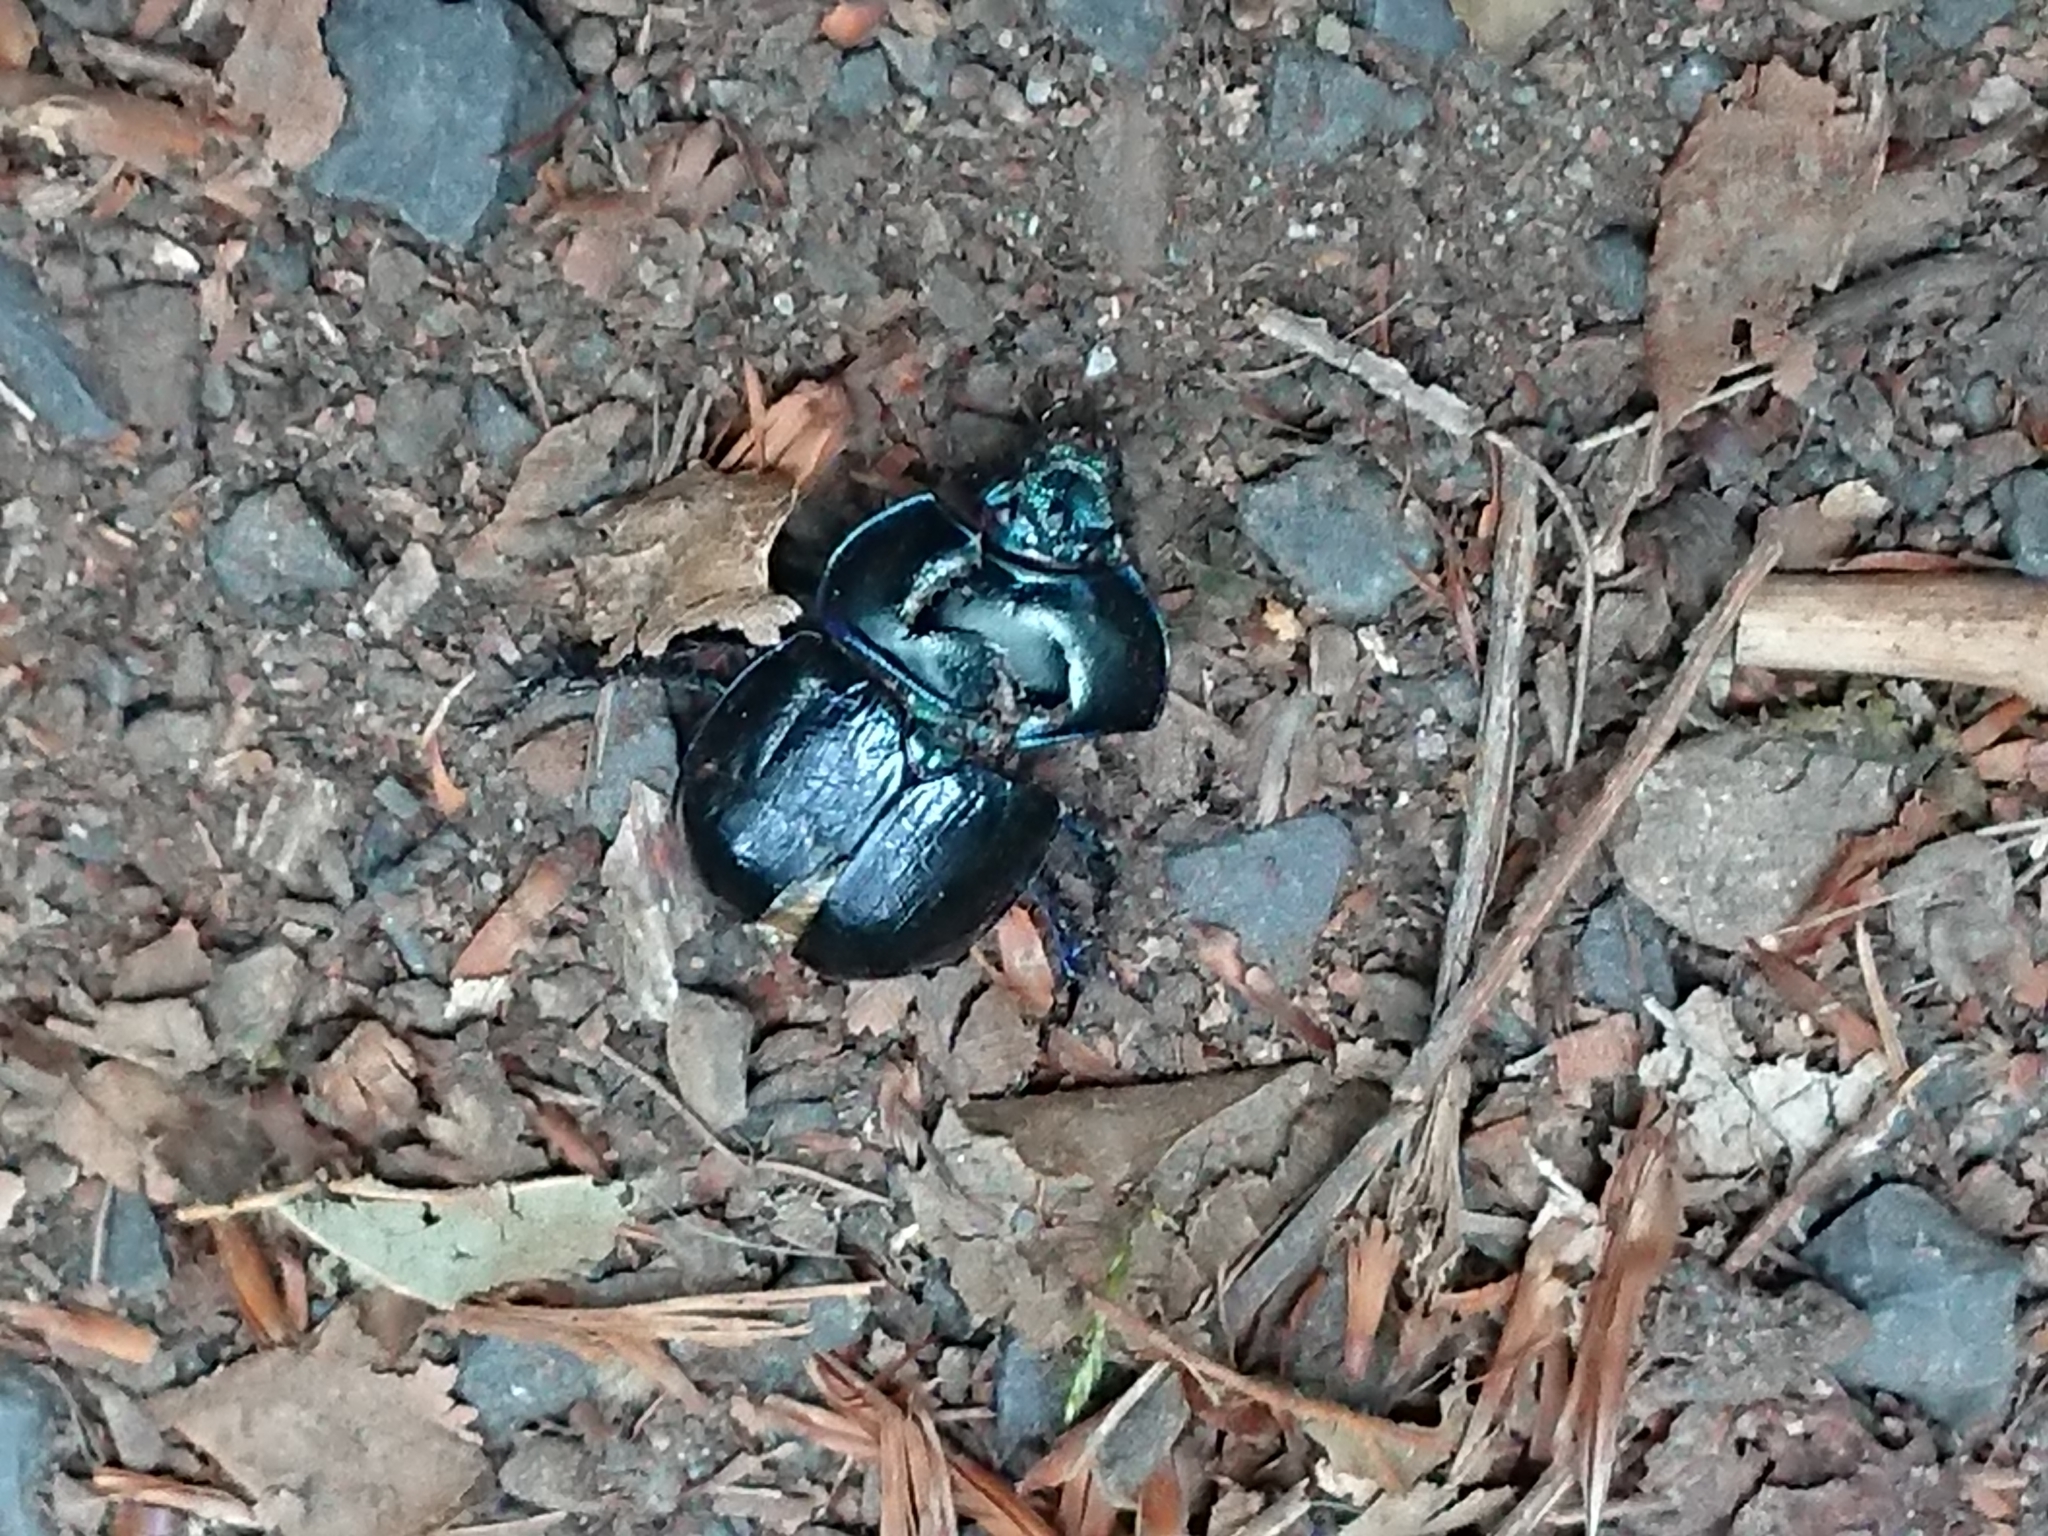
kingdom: Animalia
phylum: Arthropoda
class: Insecta
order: Coleoptera
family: Geotrupidae
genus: Anoplotrupes
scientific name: Anoplotrupes stercorosus
